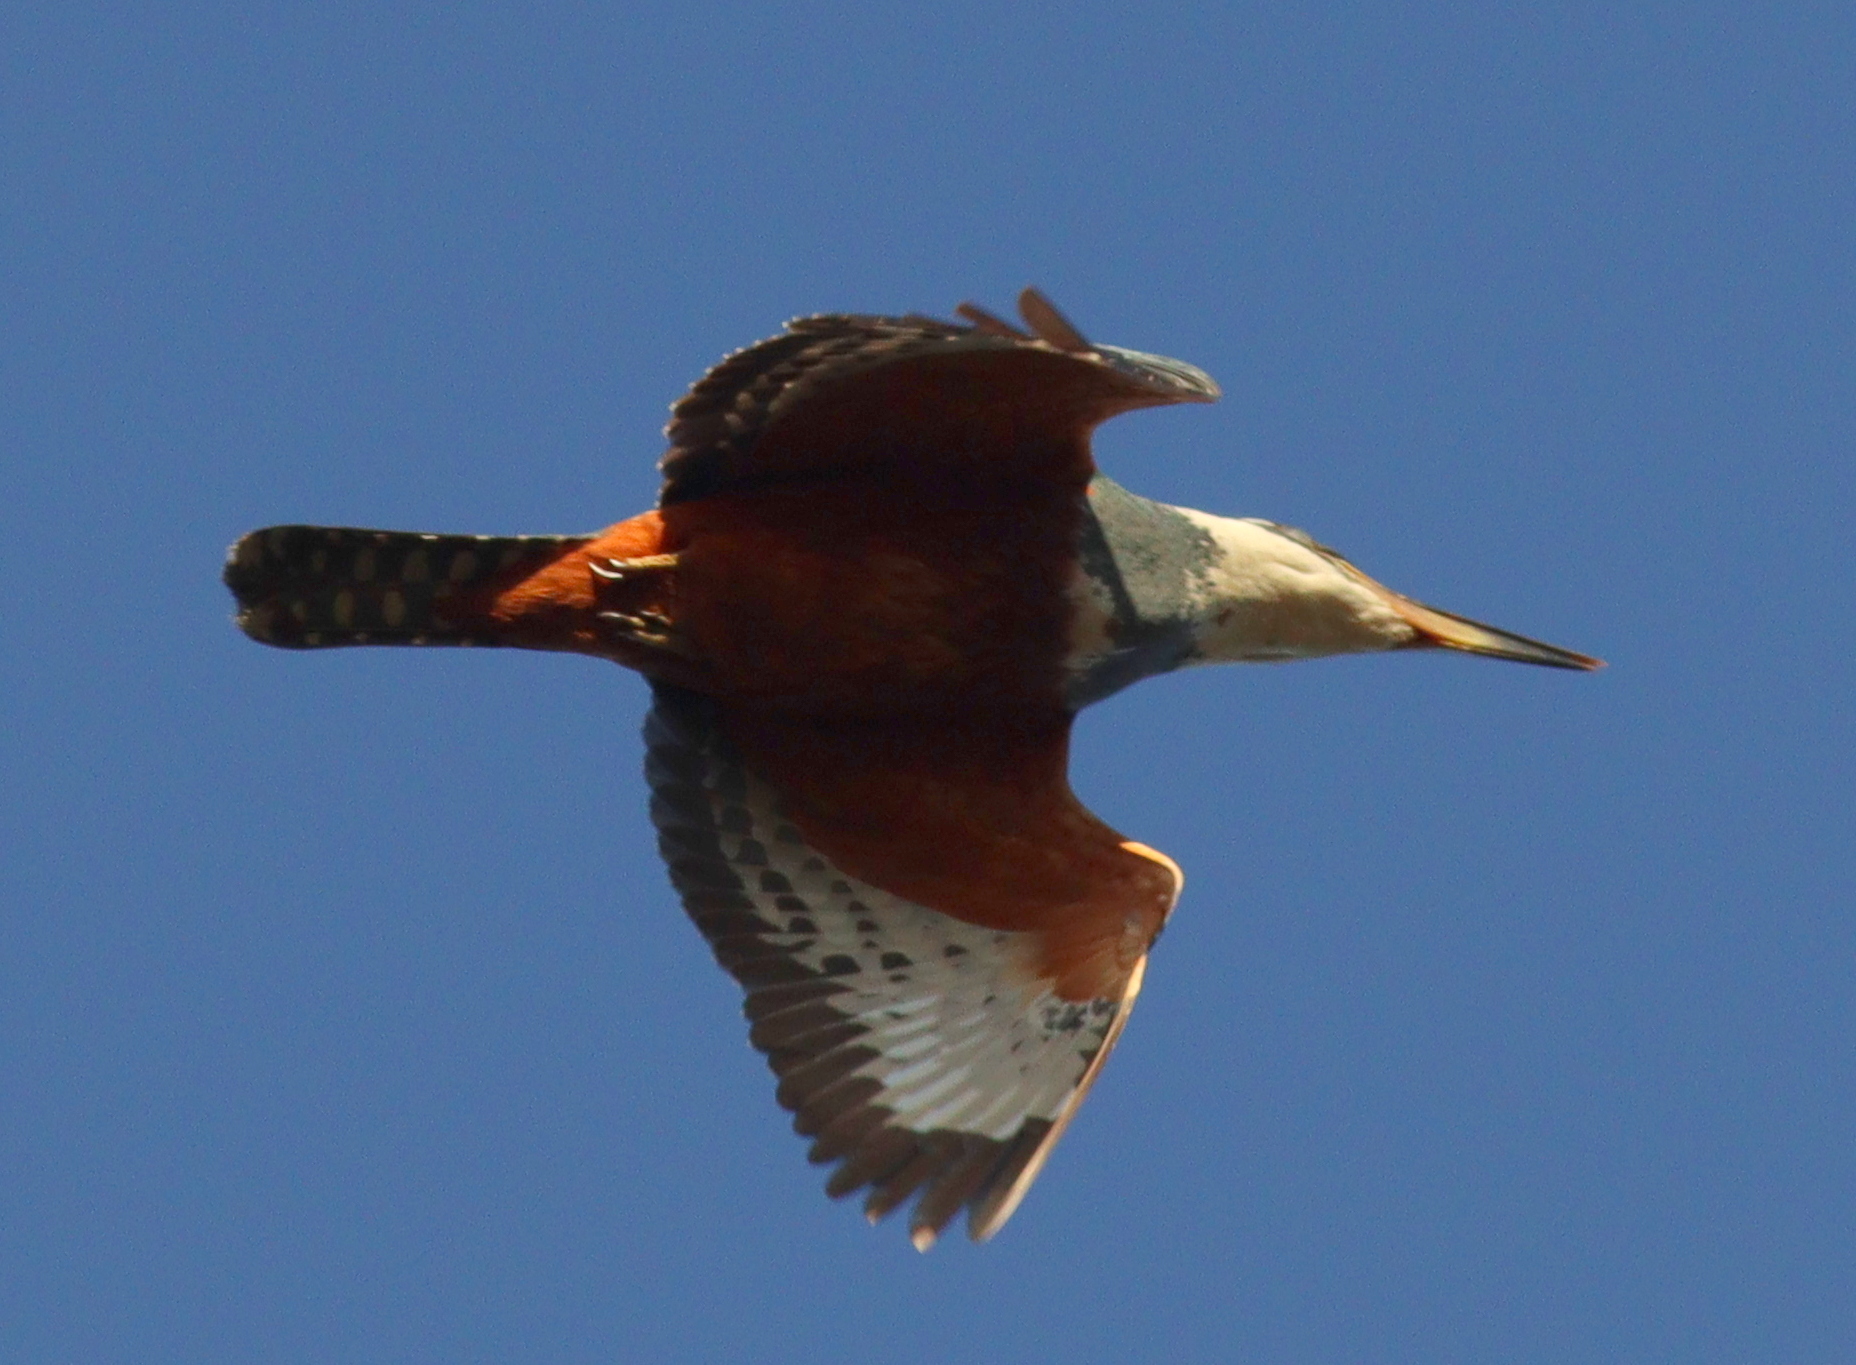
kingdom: Animalia
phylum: Chordata
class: Aves
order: Coraciiformes
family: Alcedinidae
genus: Megaceryle
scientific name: Megaceryle torquata
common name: Ringed kingfisher
